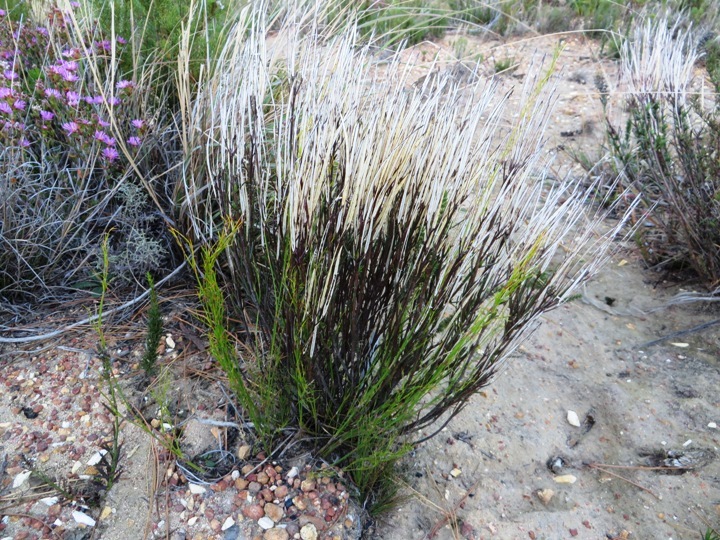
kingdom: Plantae
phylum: Tracheophyta
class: Magnoliopsida
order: Brassicales
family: Brassicaceae
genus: Heliophila
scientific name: Heliophila scoparia
